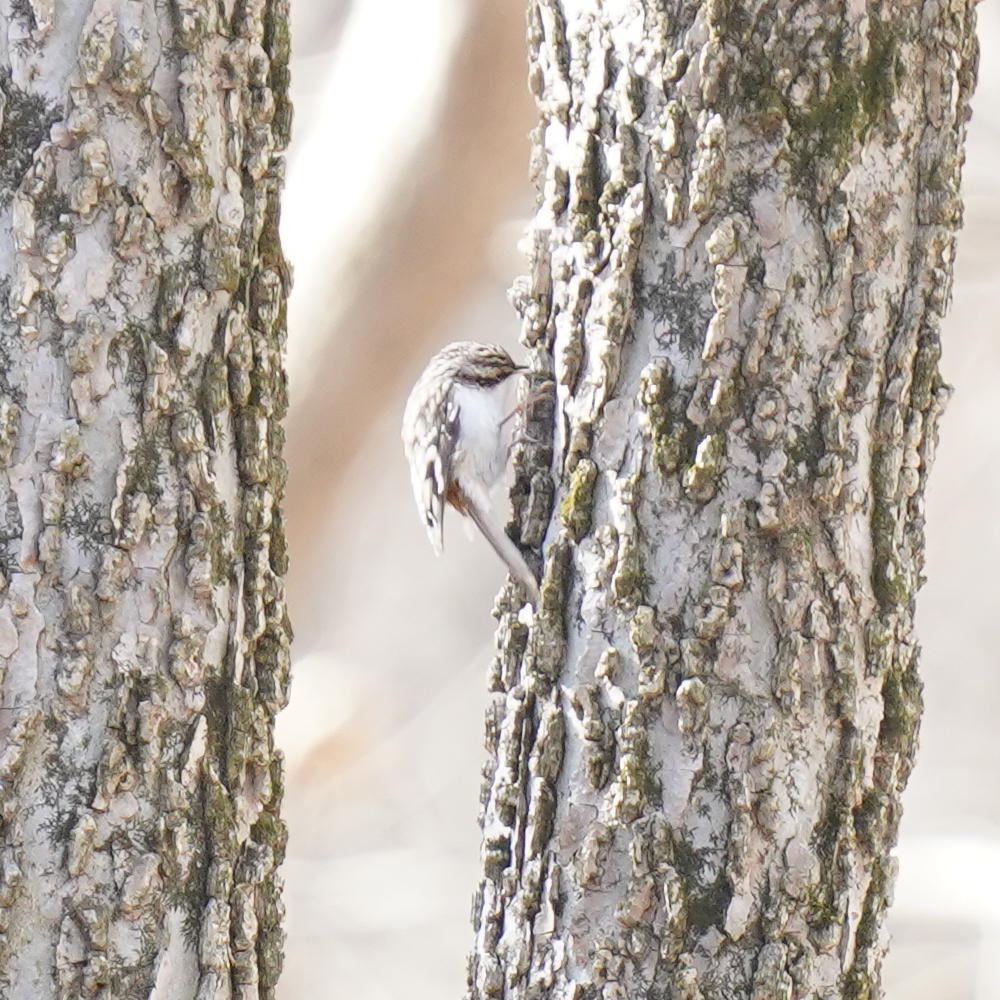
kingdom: Animalia
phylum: Chordata
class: Aves
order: Passeriformes
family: Certhiidae
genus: Certhia
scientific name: Certhia americana
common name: Brown creeper
